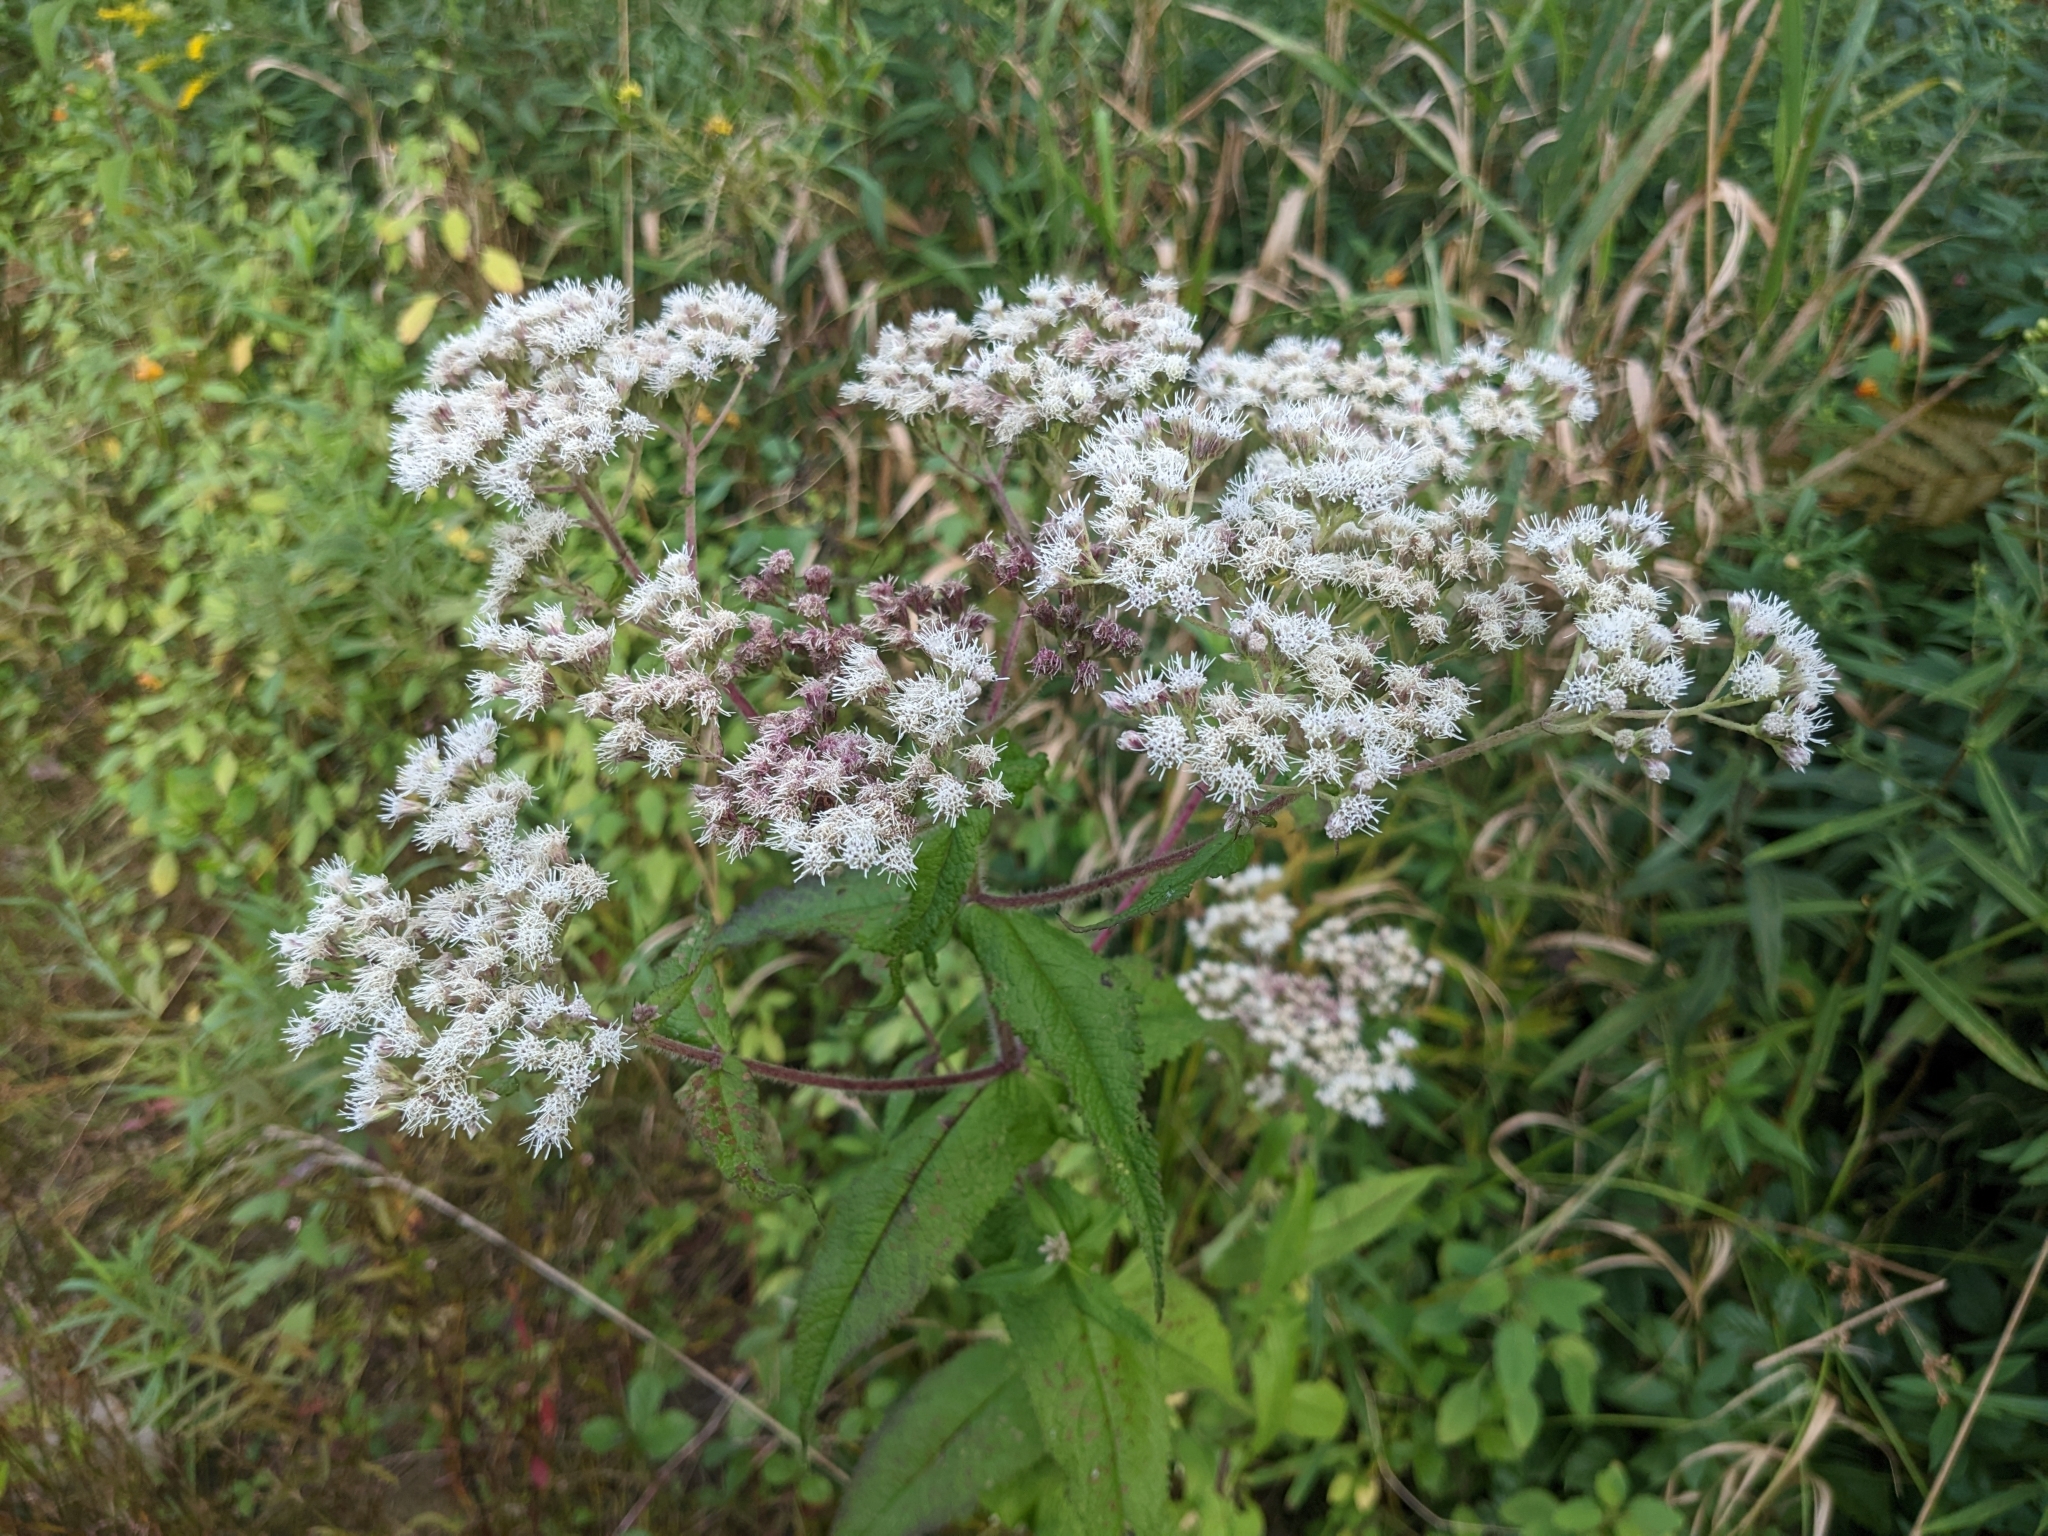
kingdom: Plantae
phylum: Tracheophyta
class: Magnoliopsida
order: Asterales
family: Asteraceae
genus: Eupatorium
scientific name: Eupatorium perfoliatum
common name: Boneset
